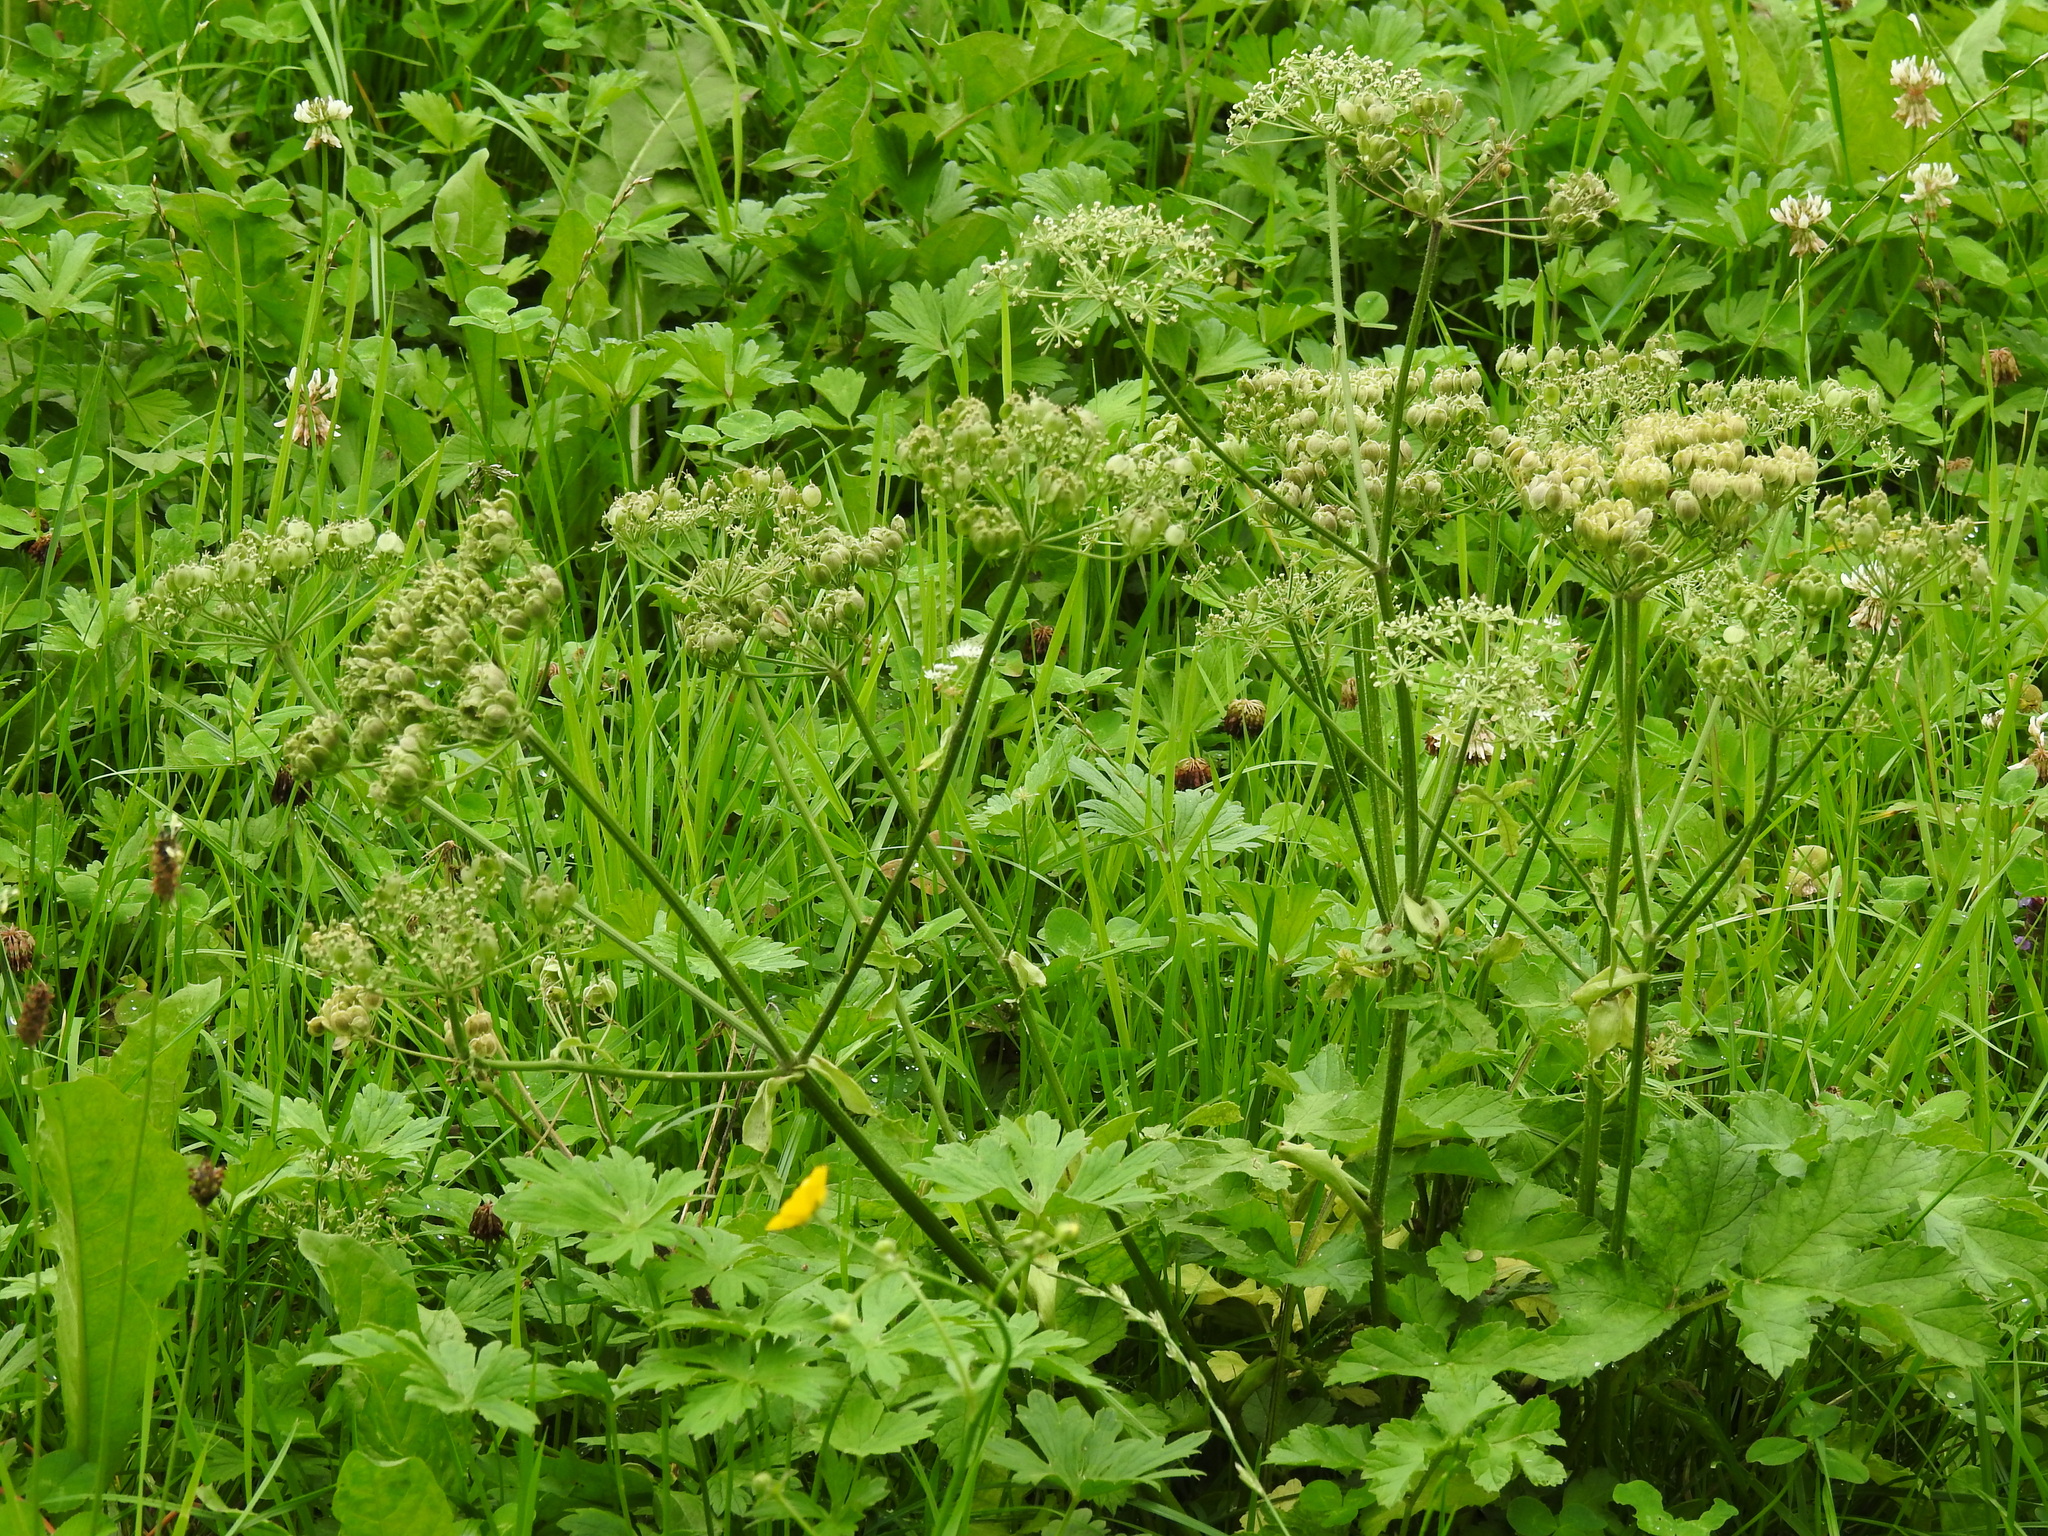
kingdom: Plantae
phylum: Tracheophyta
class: Magnoliopsida
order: Apiales
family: Apiaceae
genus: Heracleum
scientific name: Heracleum sphondylium
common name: Hogweed
